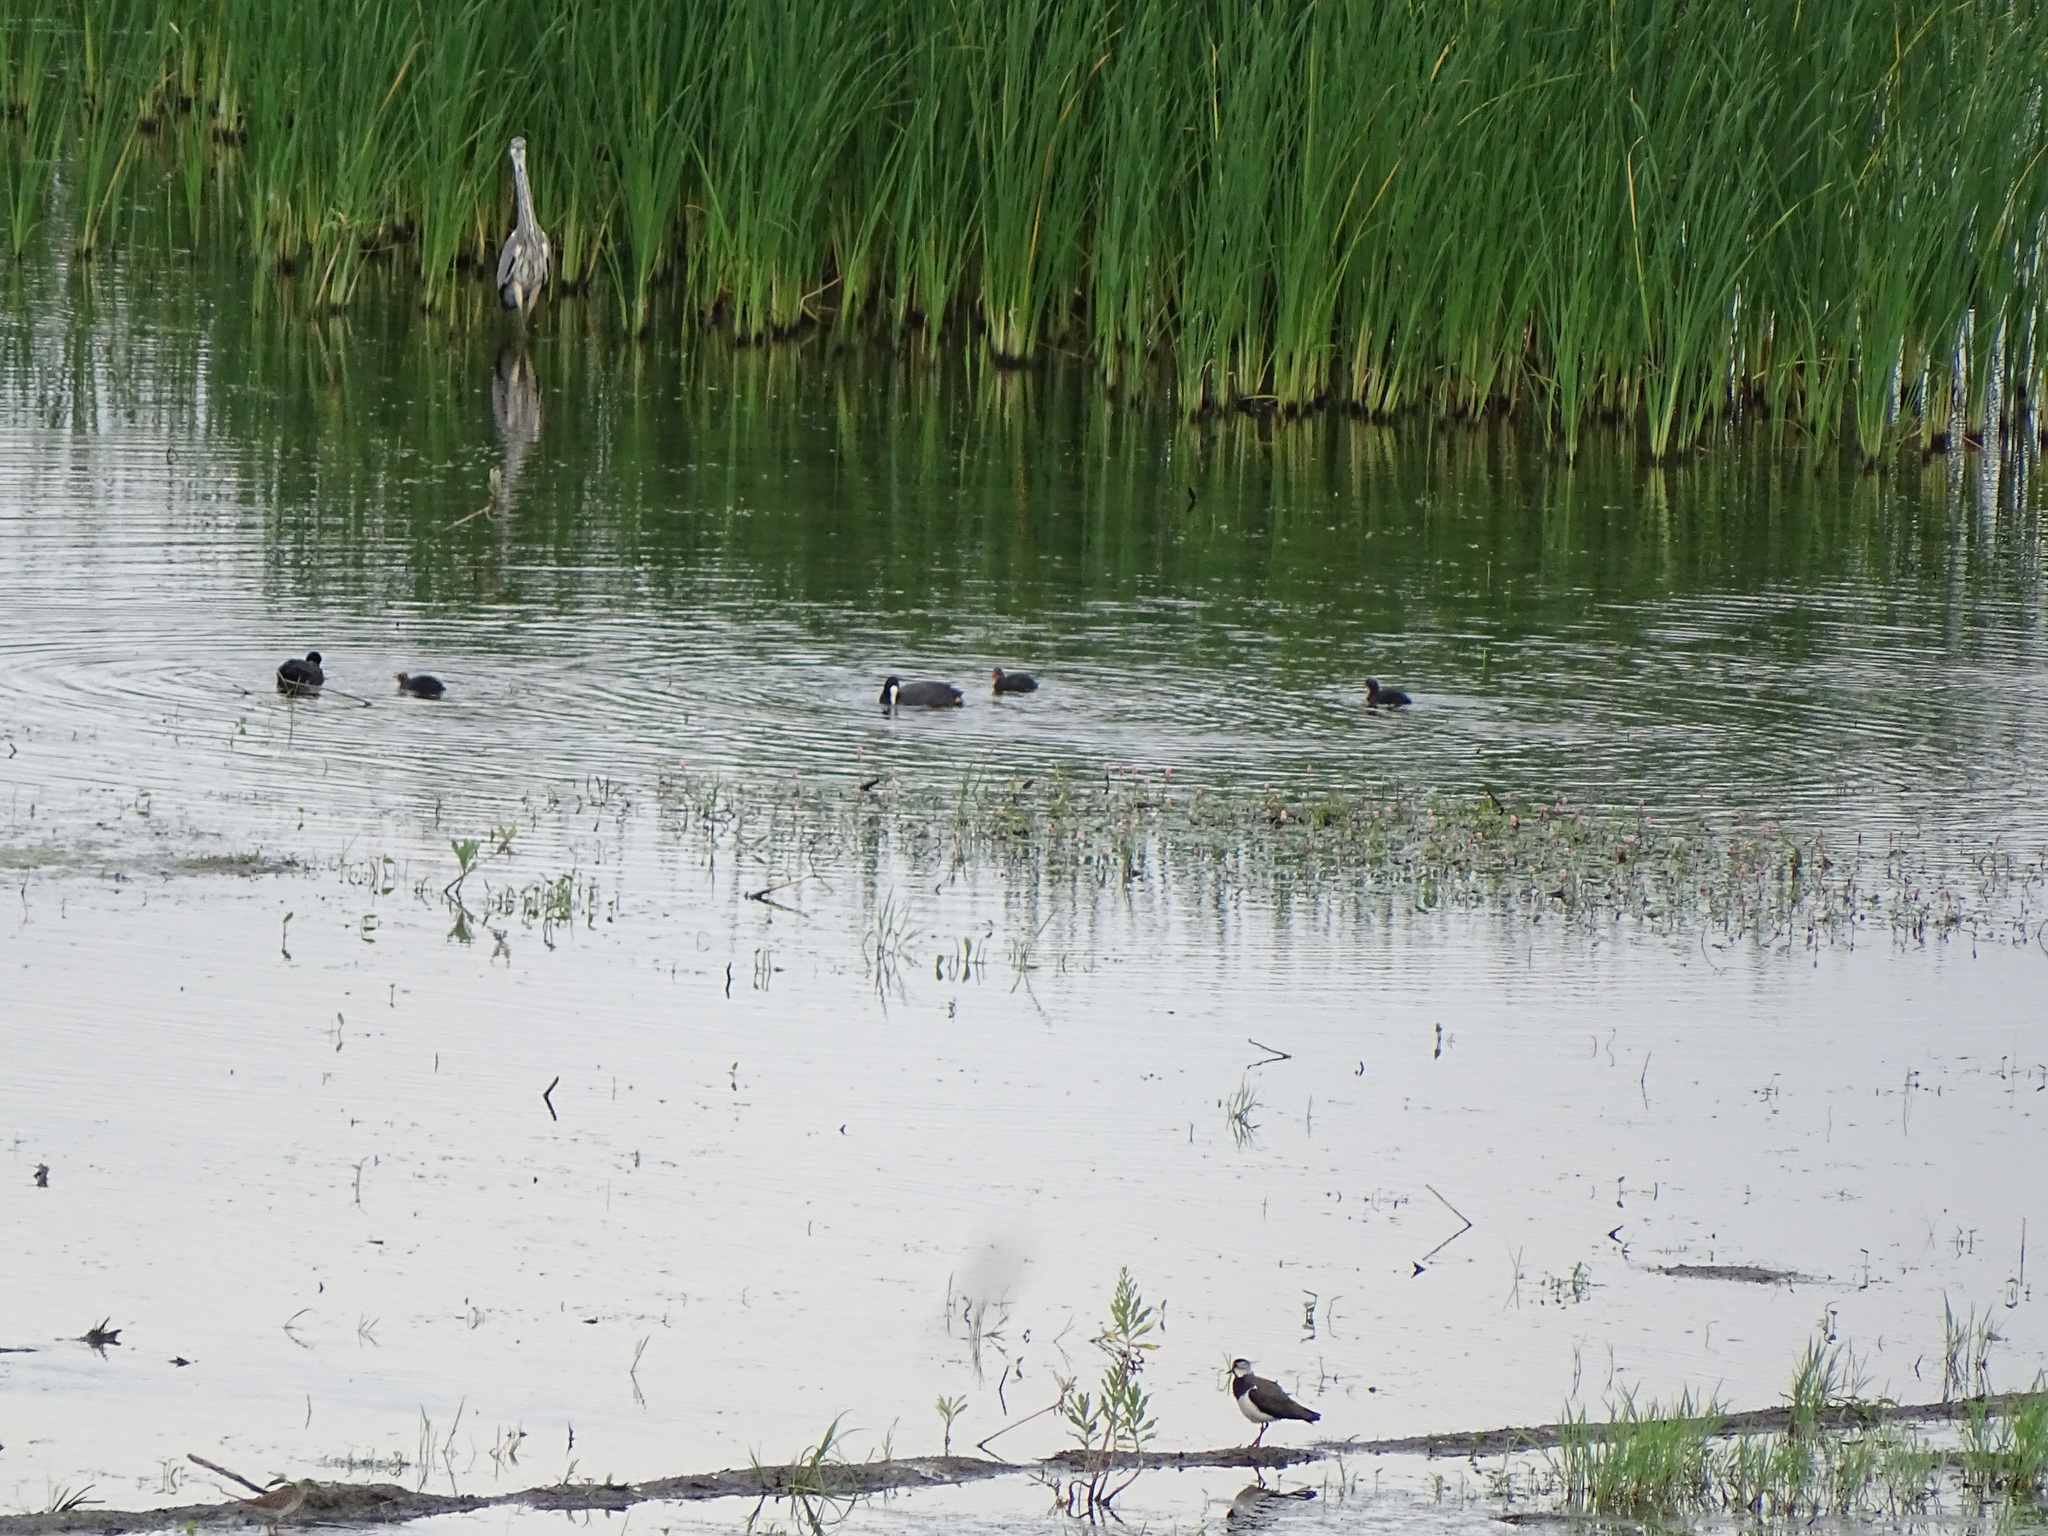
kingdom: Animalia
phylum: Chordata
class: Aves
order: Charadriiformes
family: Charadriidae
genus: Vanellus
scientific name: Vanellus vanellus
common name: Northern lapwing
